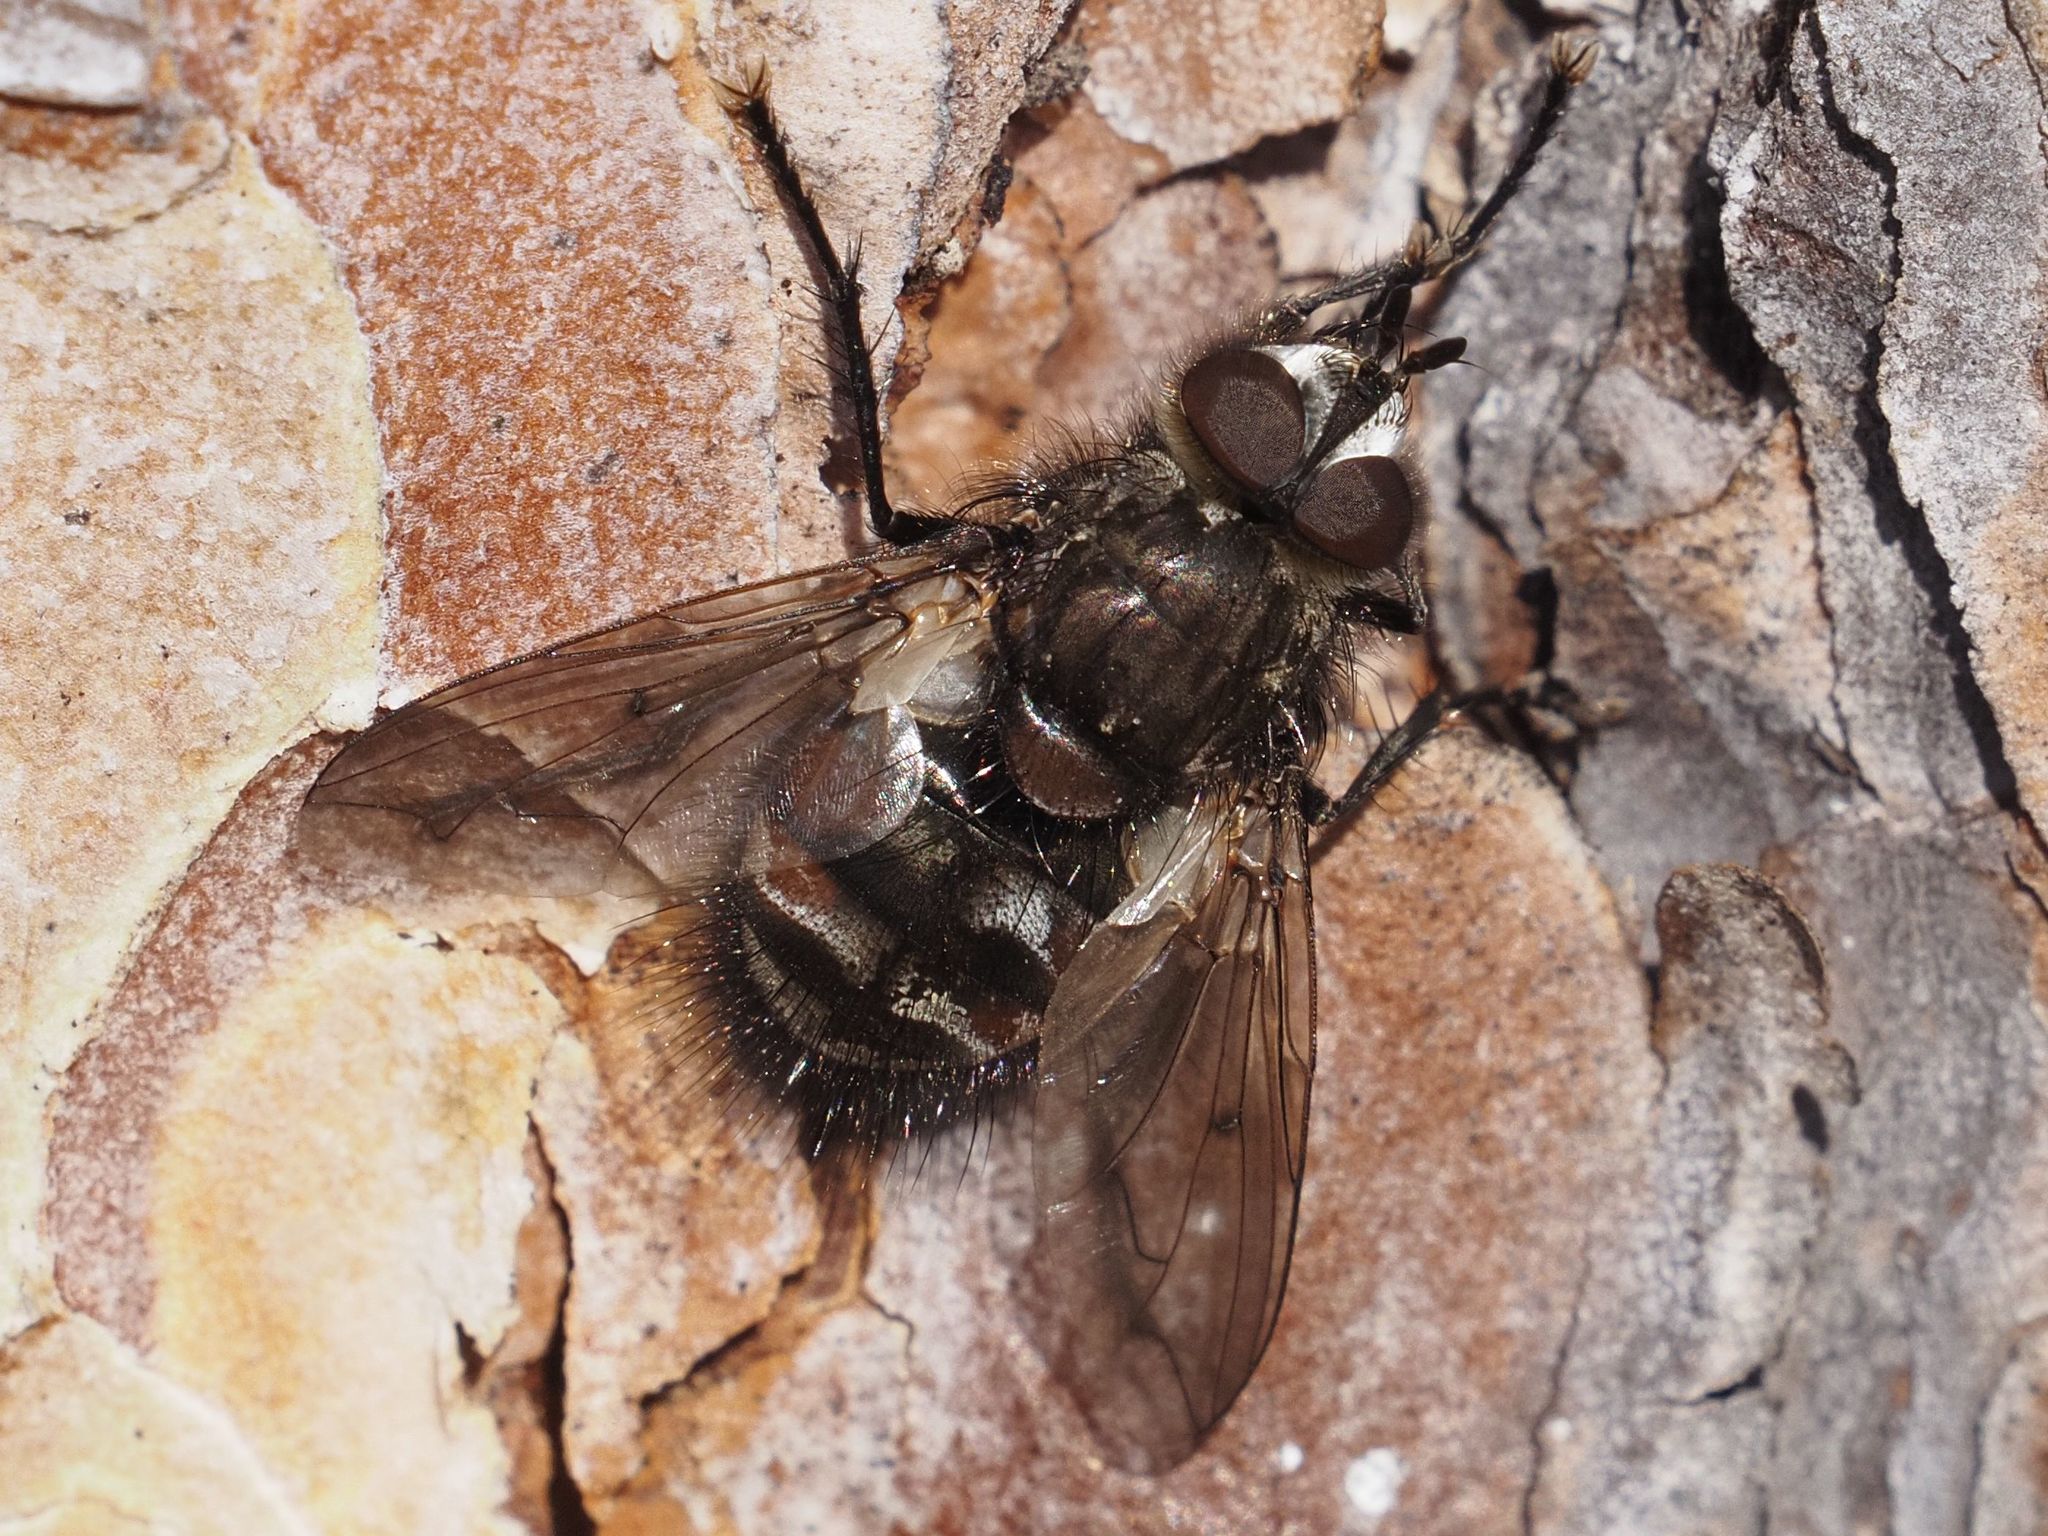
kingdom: Animalia
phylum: Arthropoda
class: Insecta
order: Diptera
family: Tachinidae
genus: Panzeria
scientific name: Panzeria puparum
